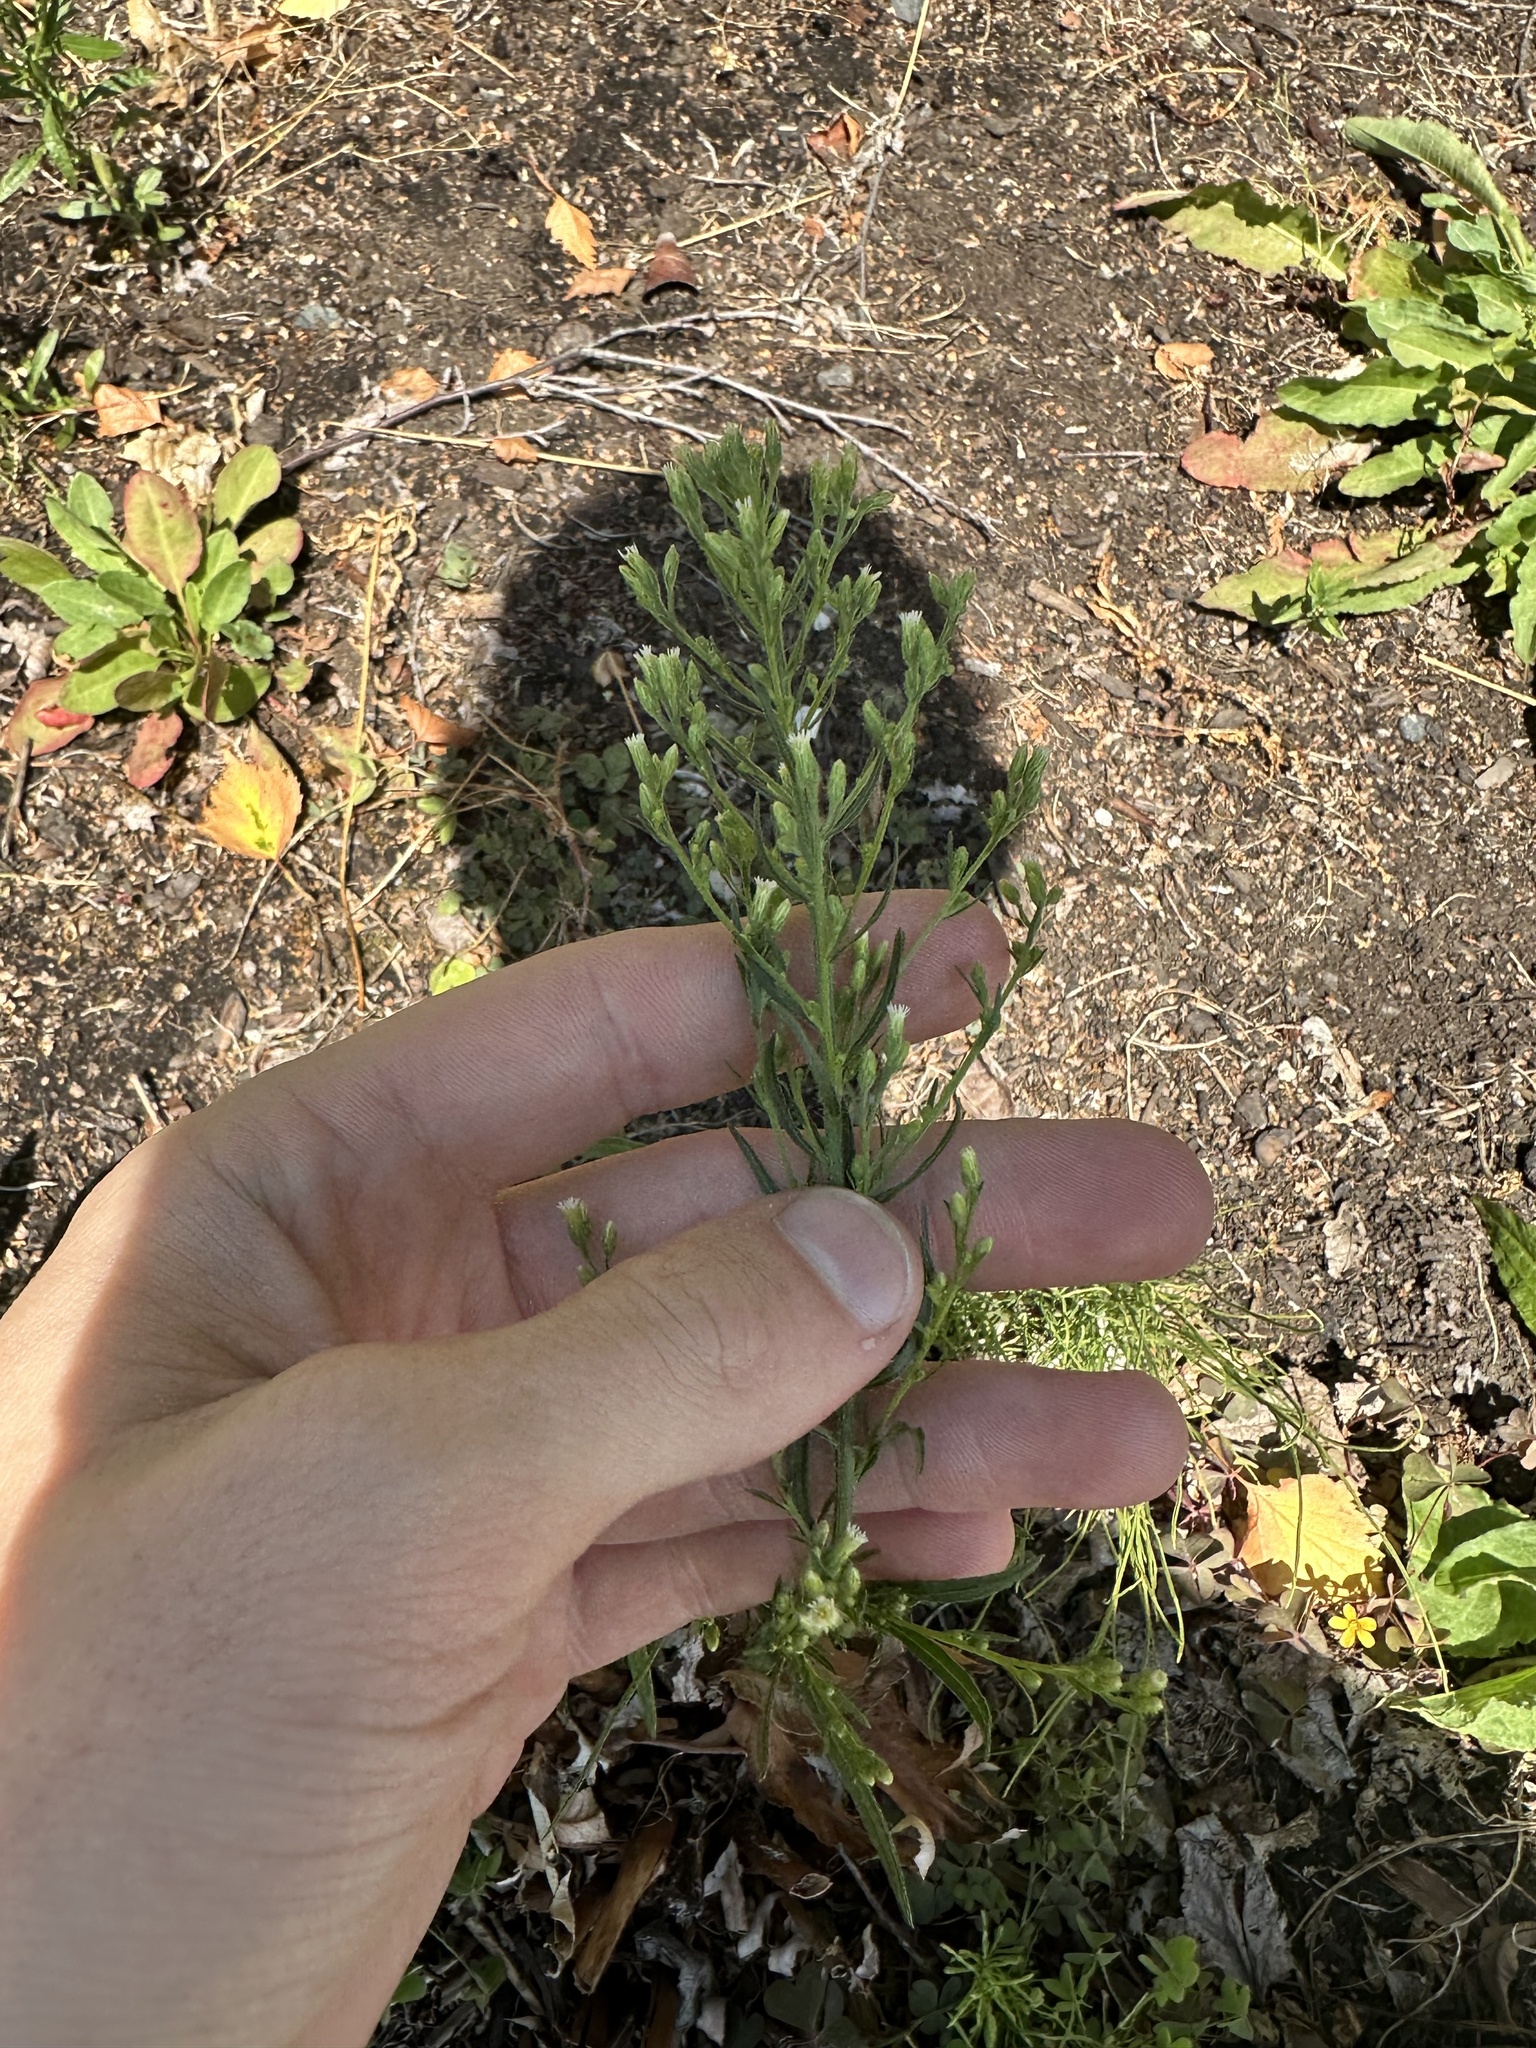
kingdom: Plantae
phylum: Tracheophyta
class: Magnoliopsida
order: Asterales
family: Asteraceae
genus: Erigeron
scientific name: Erigeron canadensis
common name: Canadian fleabane
